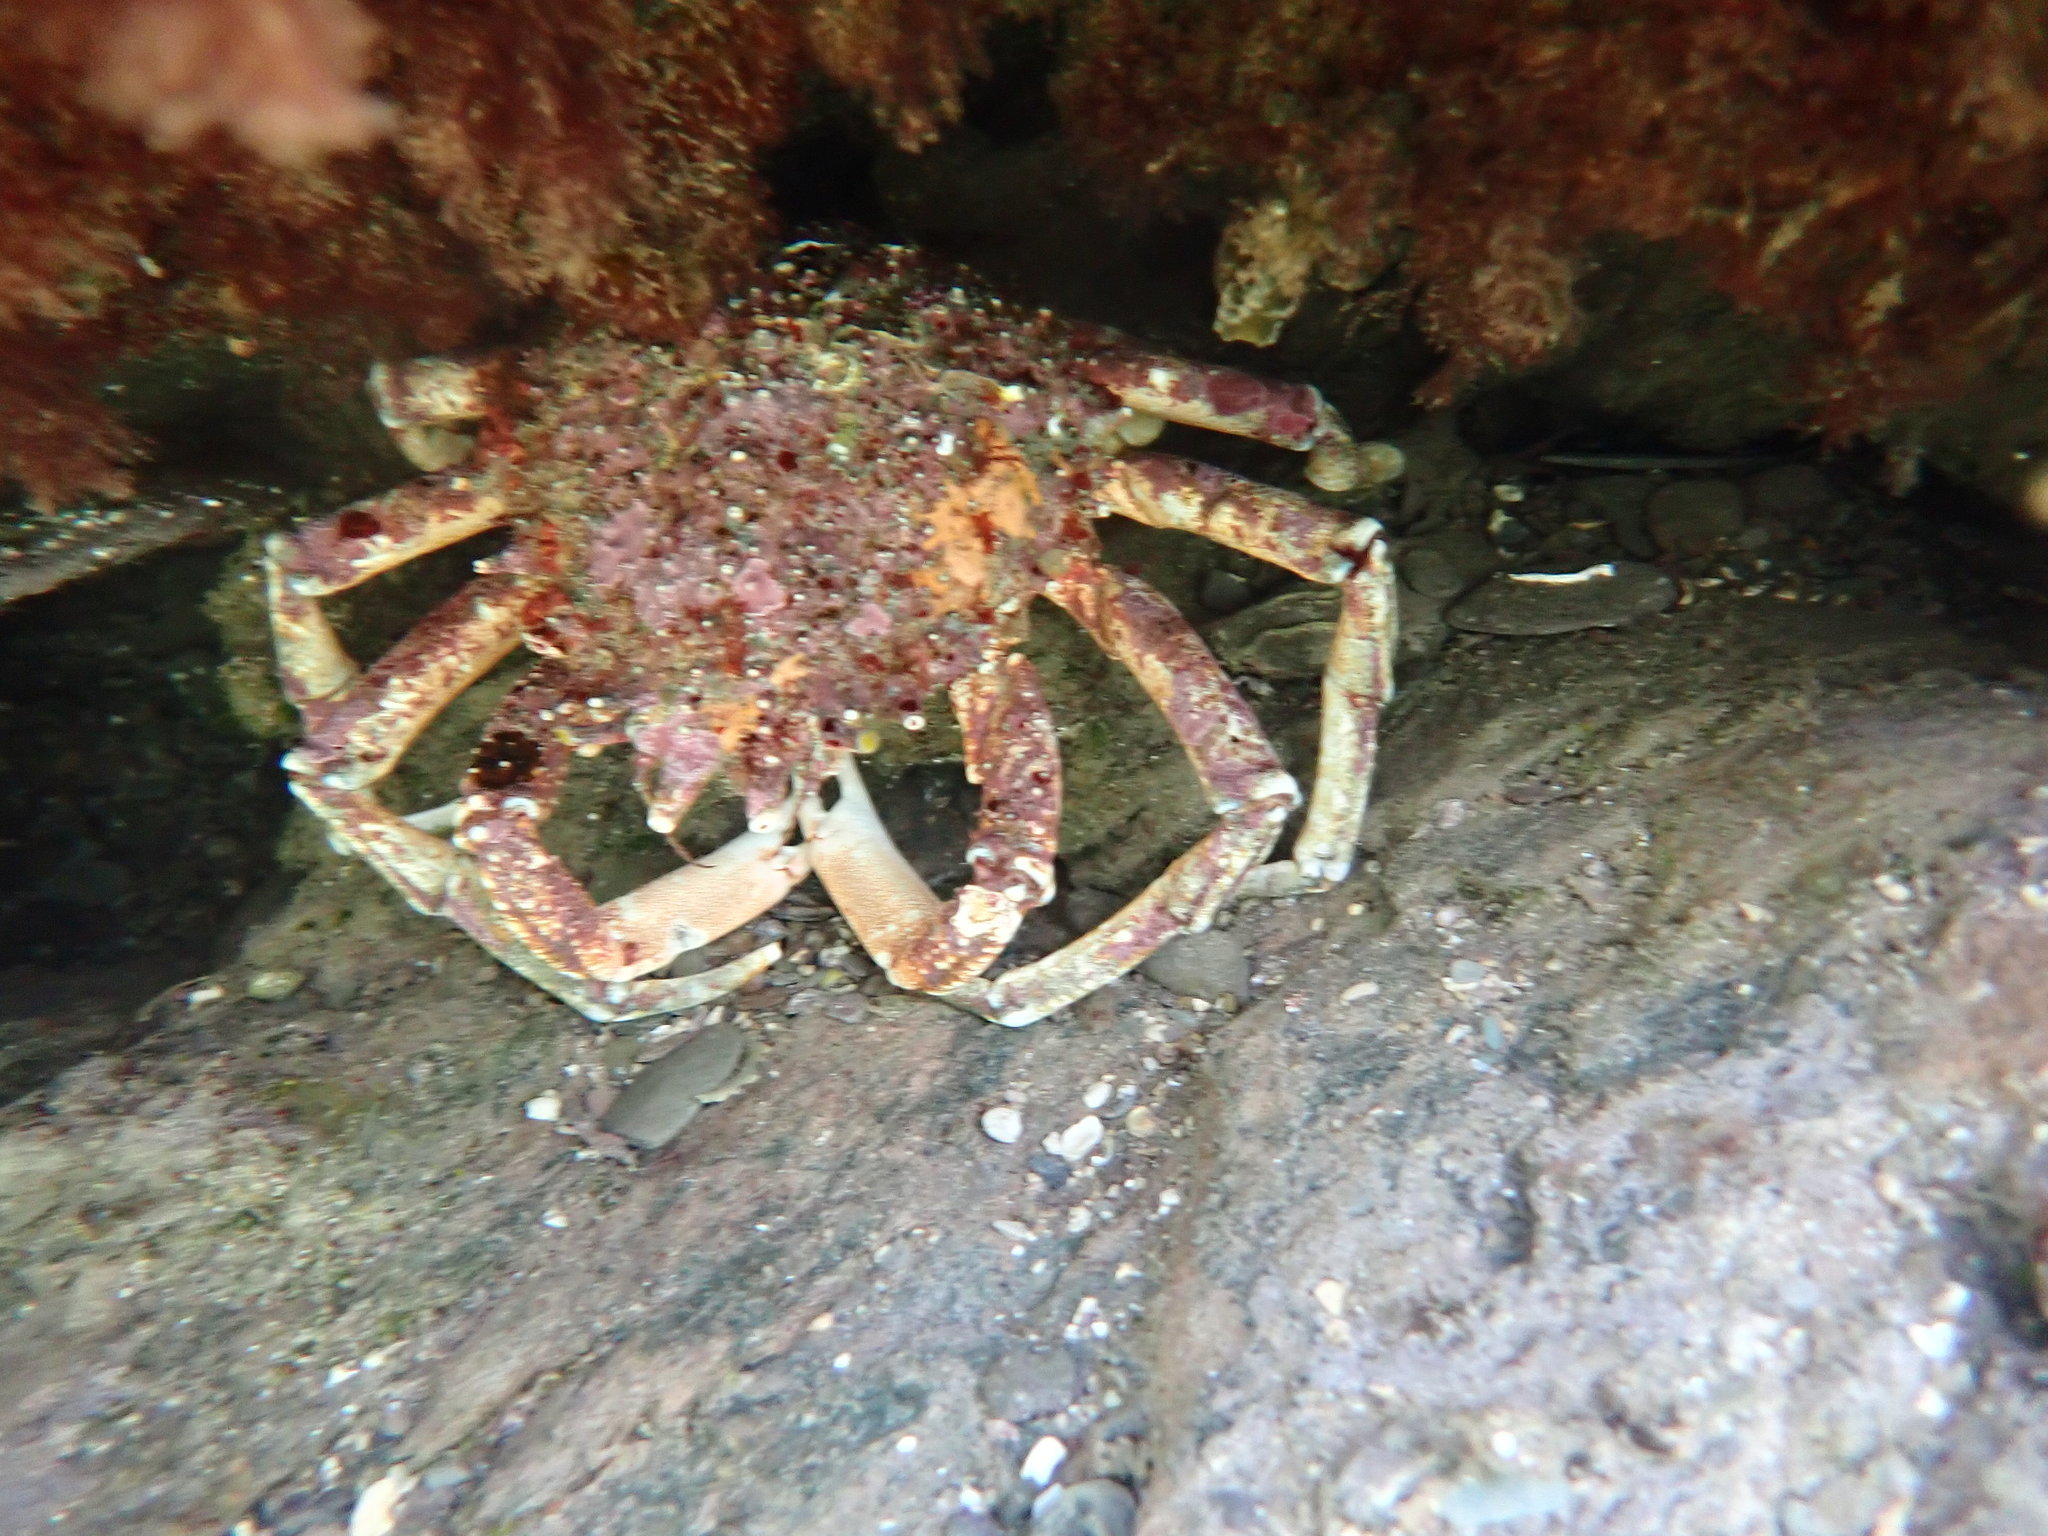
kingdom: Animalia
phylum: Arthropoda
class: Malacostraca
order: Decapoda
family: Majidae
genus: Maja
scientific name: Maja brachydactyla
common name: Common spider crab
